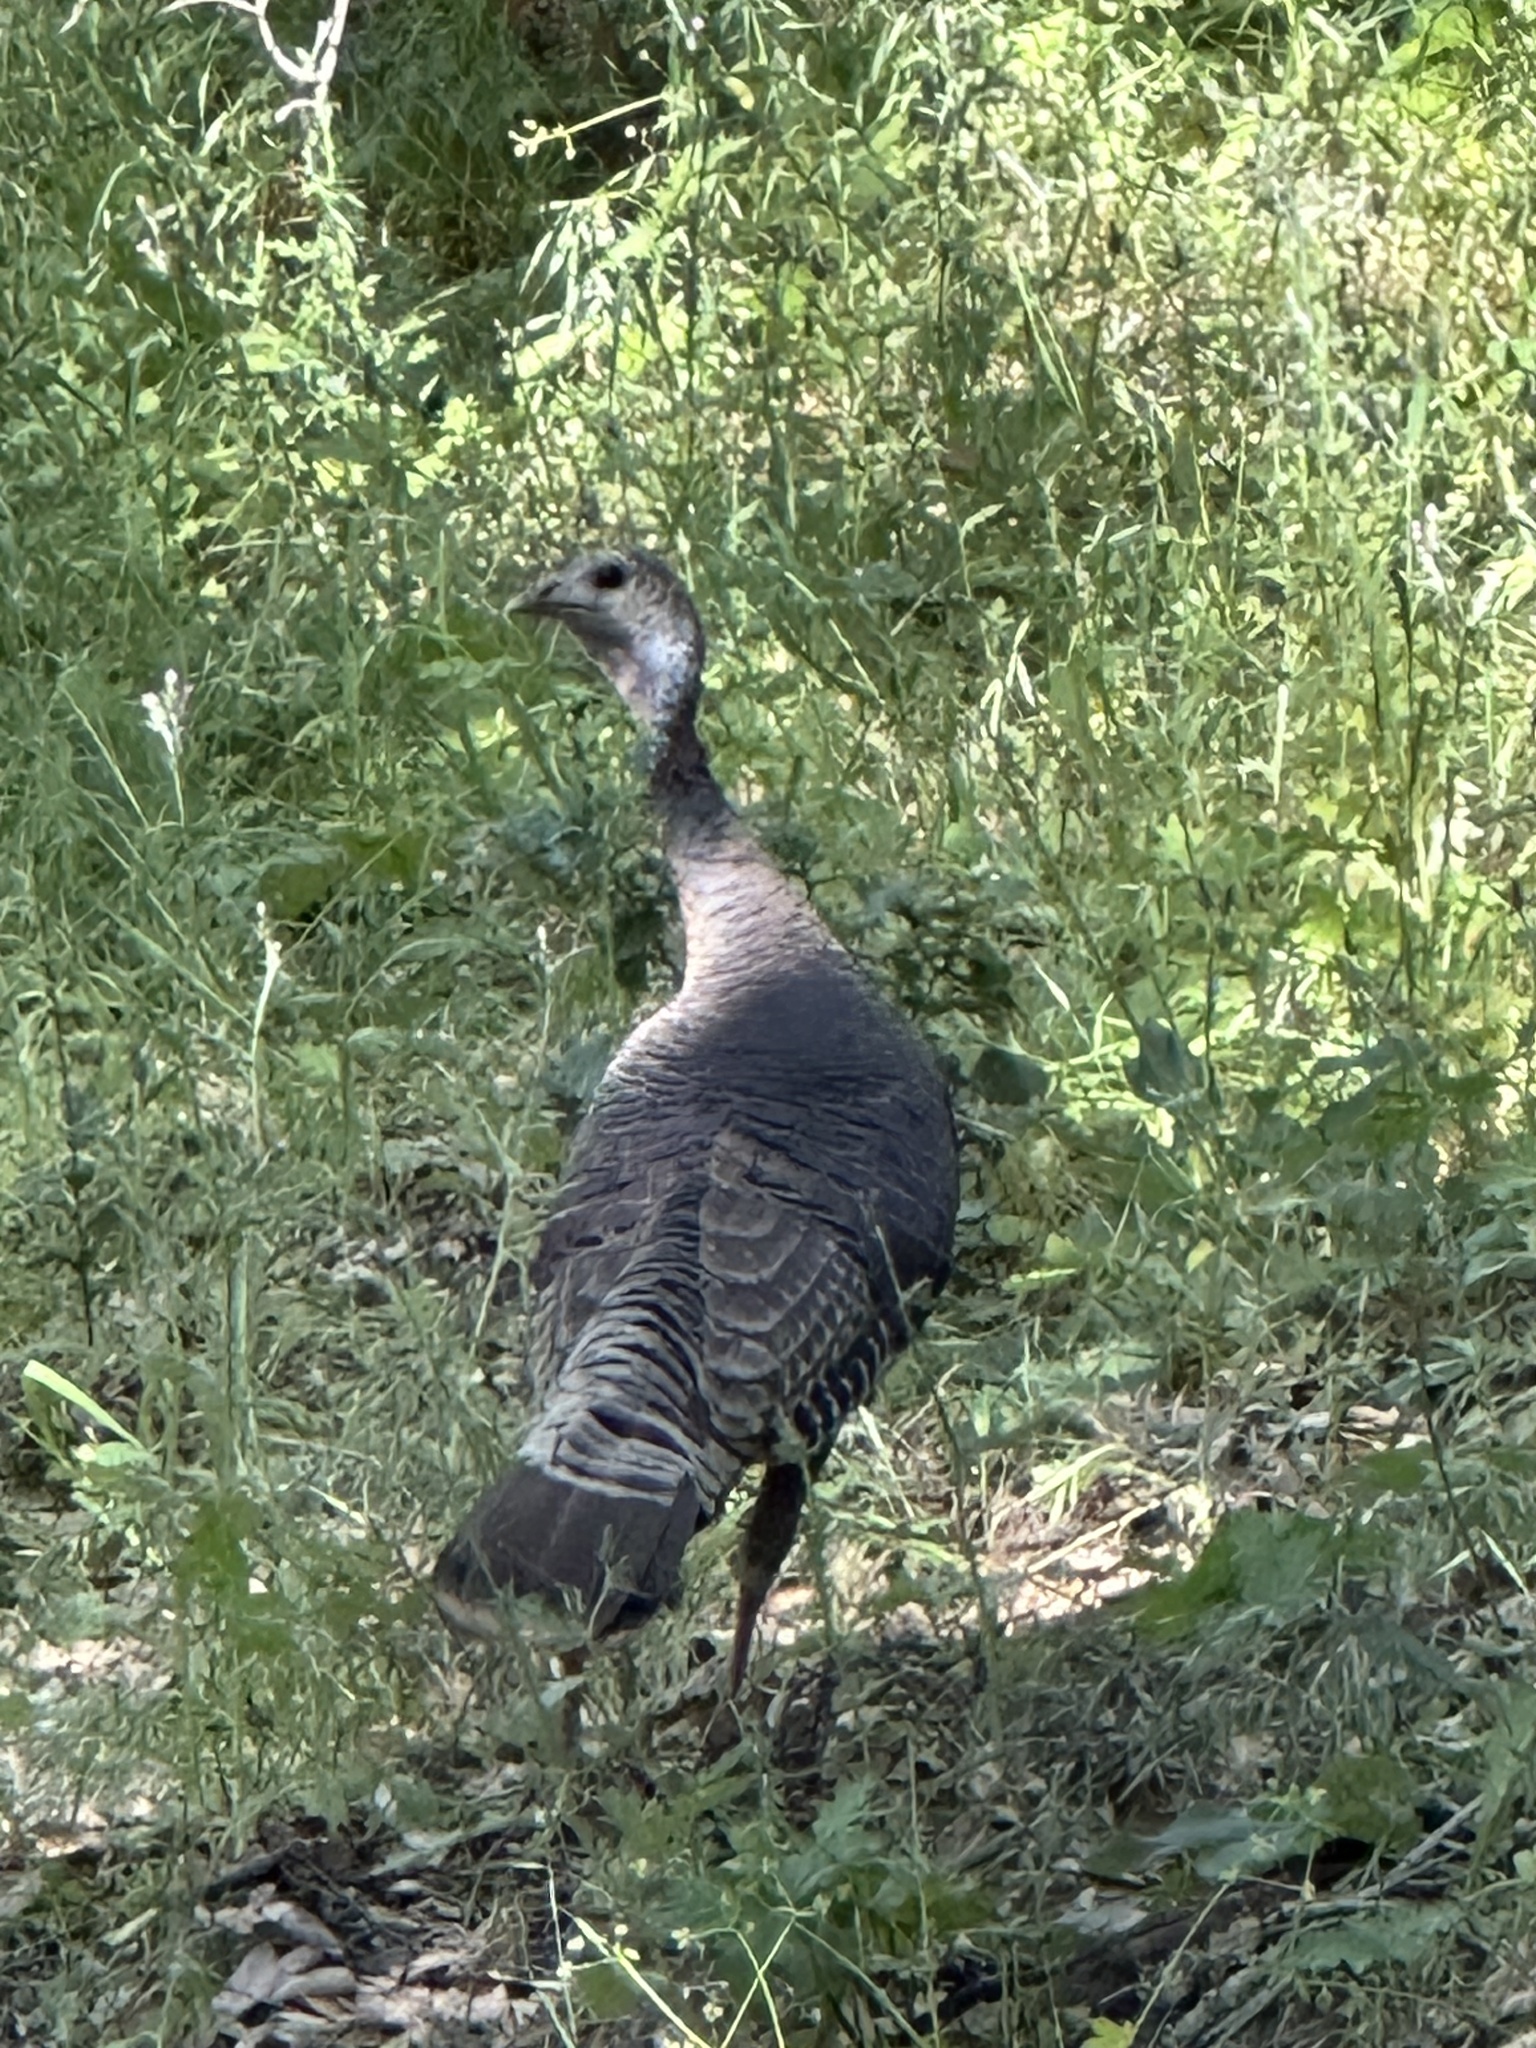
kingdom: Animalia
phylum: Chordata
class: Aves
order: Galliformes
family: Phasianidae
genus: Meleagris
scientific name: Meleagris gallopavo
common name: Wild turkey
